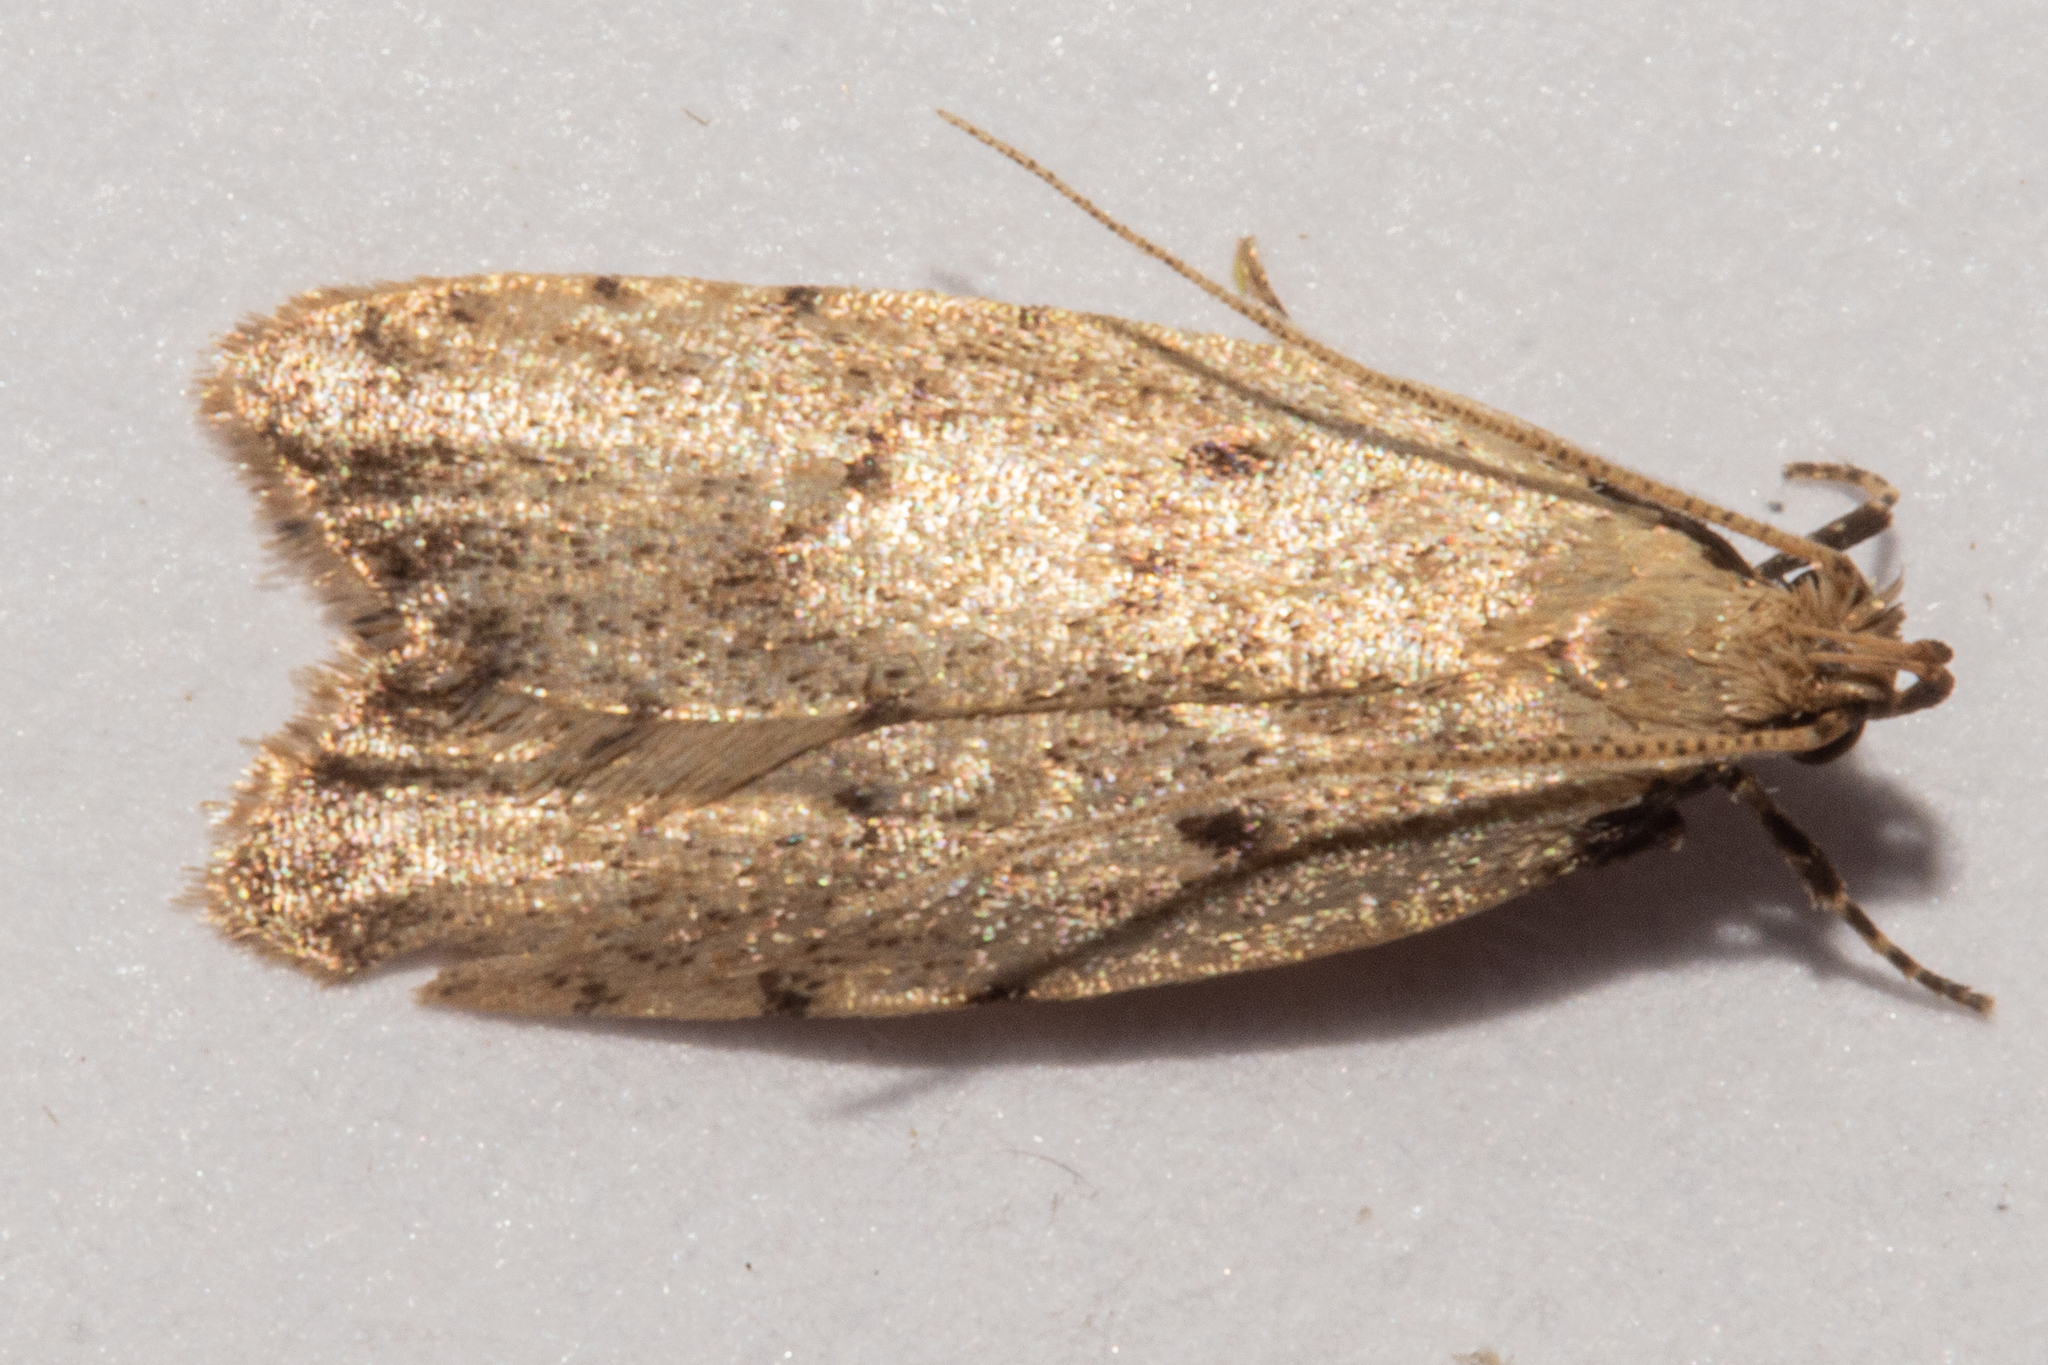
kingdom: Animalia
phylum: Arthropoda
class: Insecta
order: Lepidoptera
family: Oecophoridae
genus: Gymnobathra
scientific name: Gymnobathra calliploca
